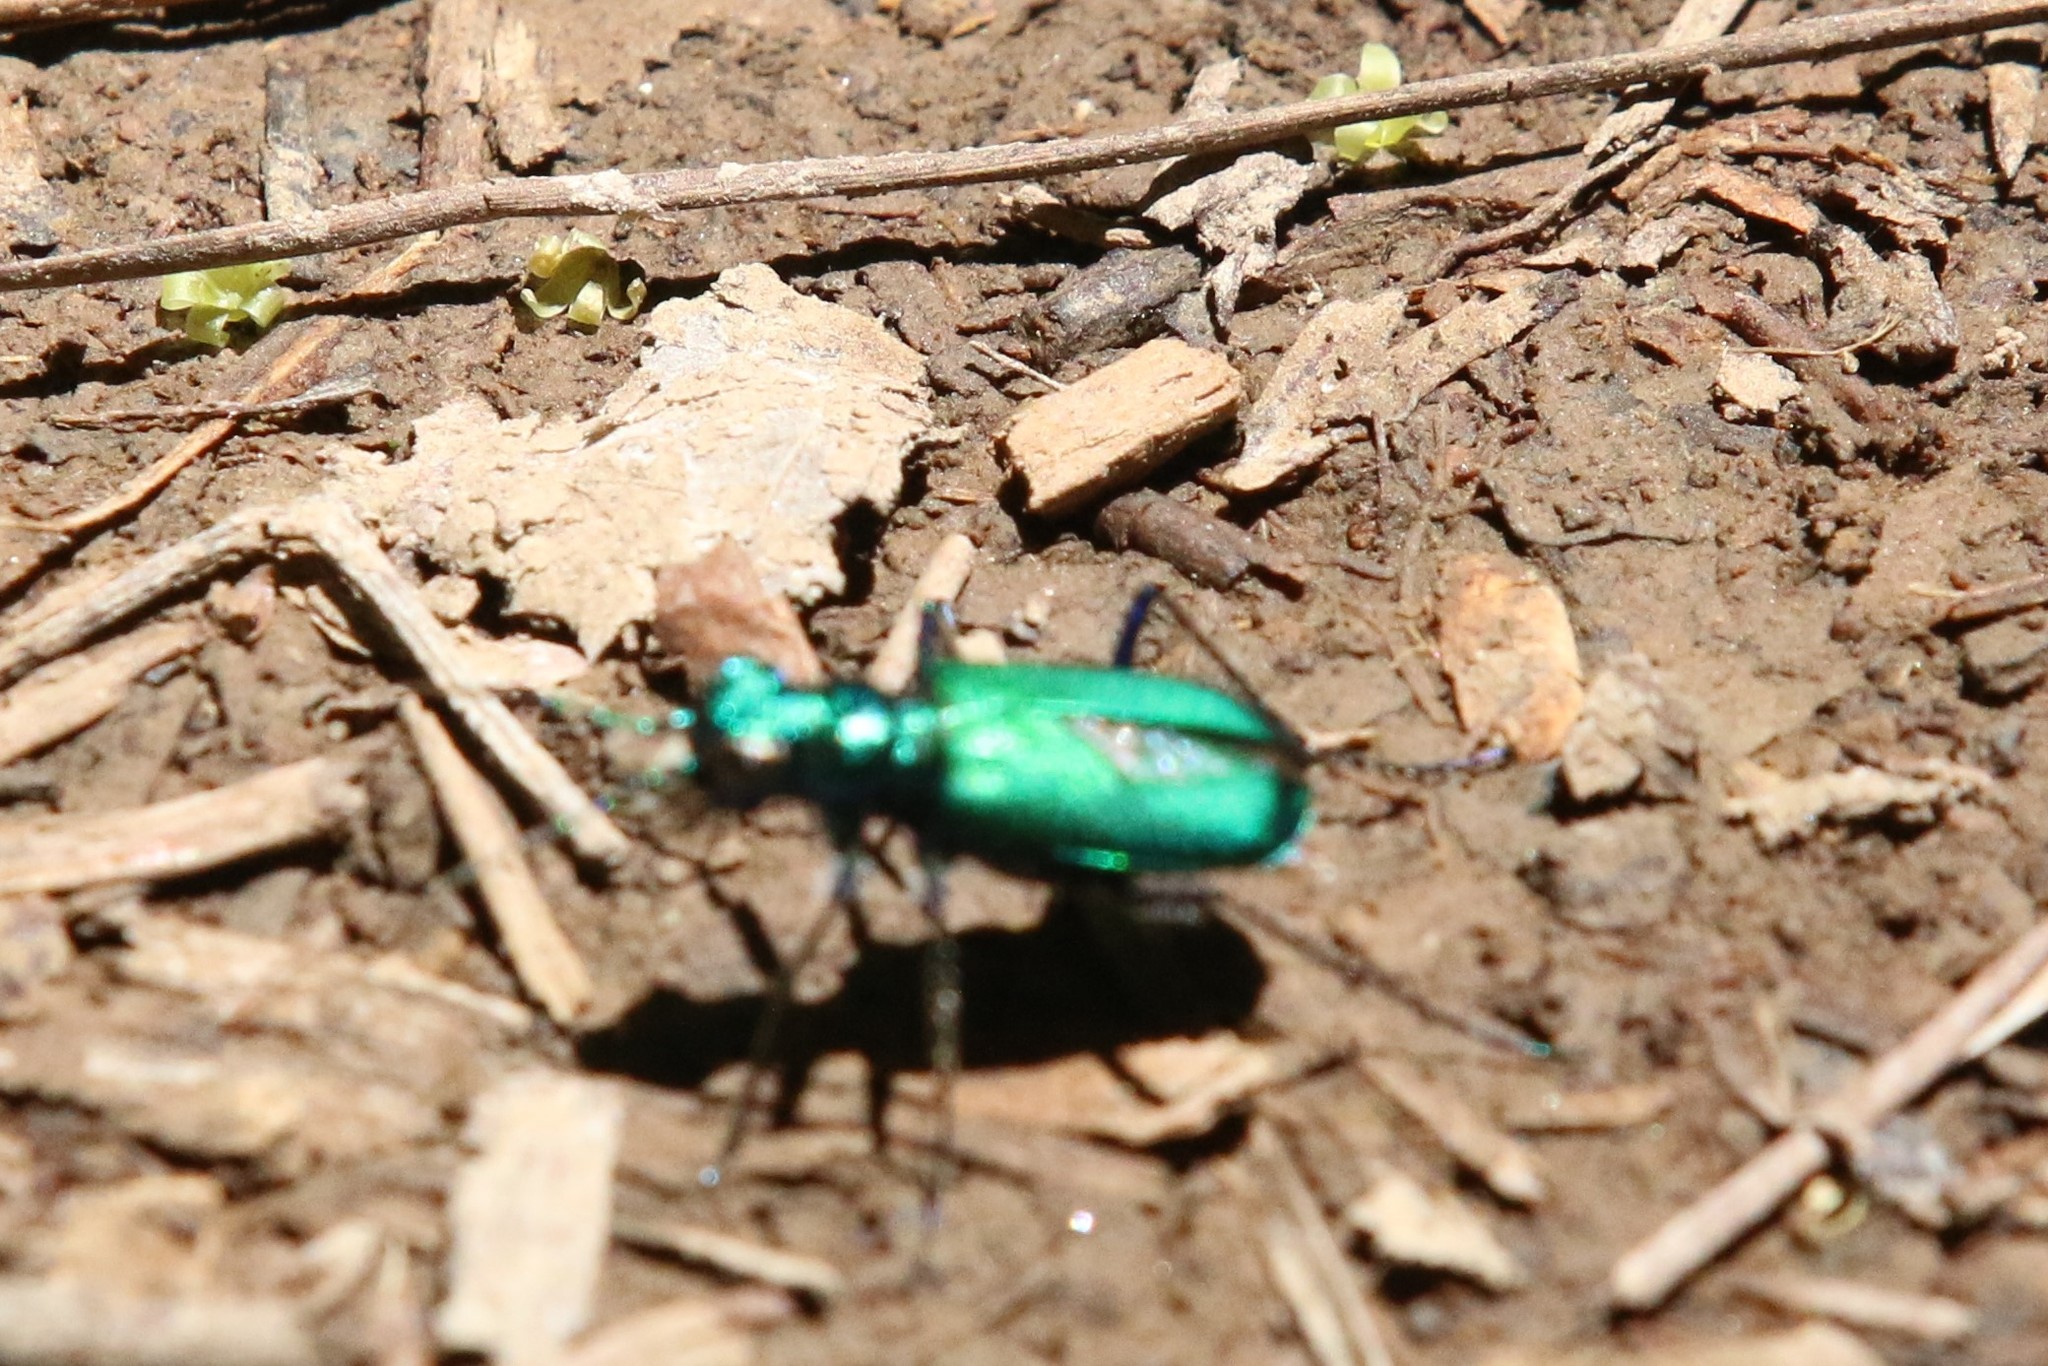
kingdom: Animalia
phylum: Arthropoda
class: Insecta
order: Coleoptera
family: Carabidae
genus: Cicindela
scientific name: Cicindela sexguttata
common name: Six-spotted tiger beetle
